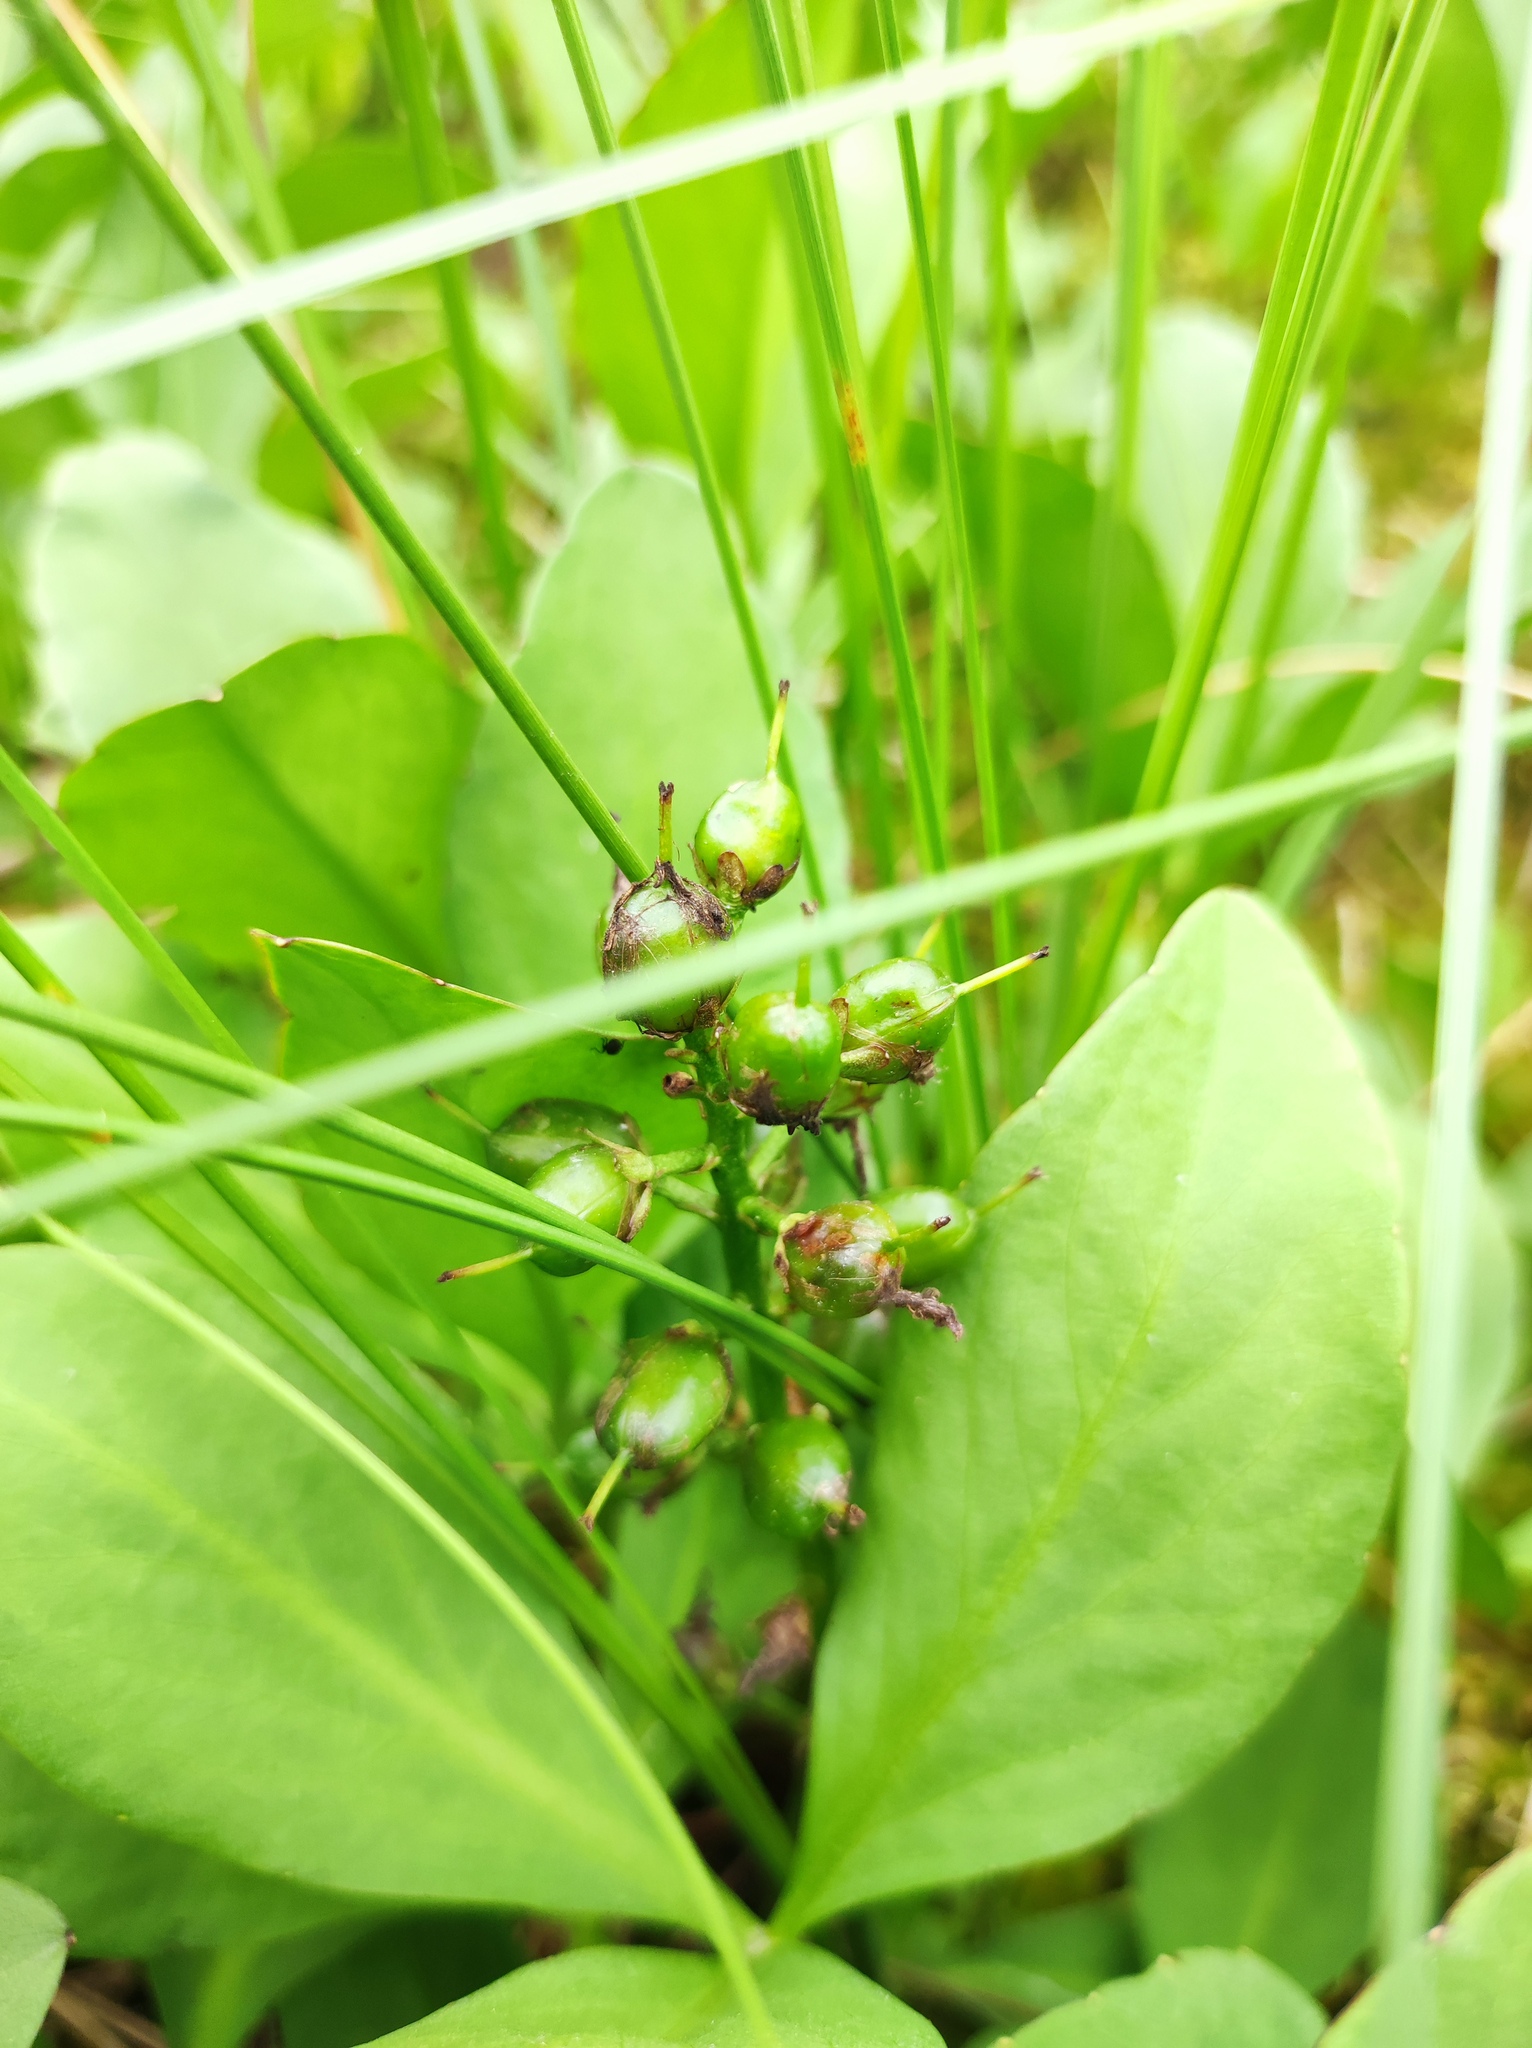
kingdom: Plantae
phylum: Tracheophyta
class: Magnoliopsida
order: Asterales
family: Menyanthaceae
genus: Menyanthes
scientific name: Menyanthes trifoliata
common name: Bogbean
